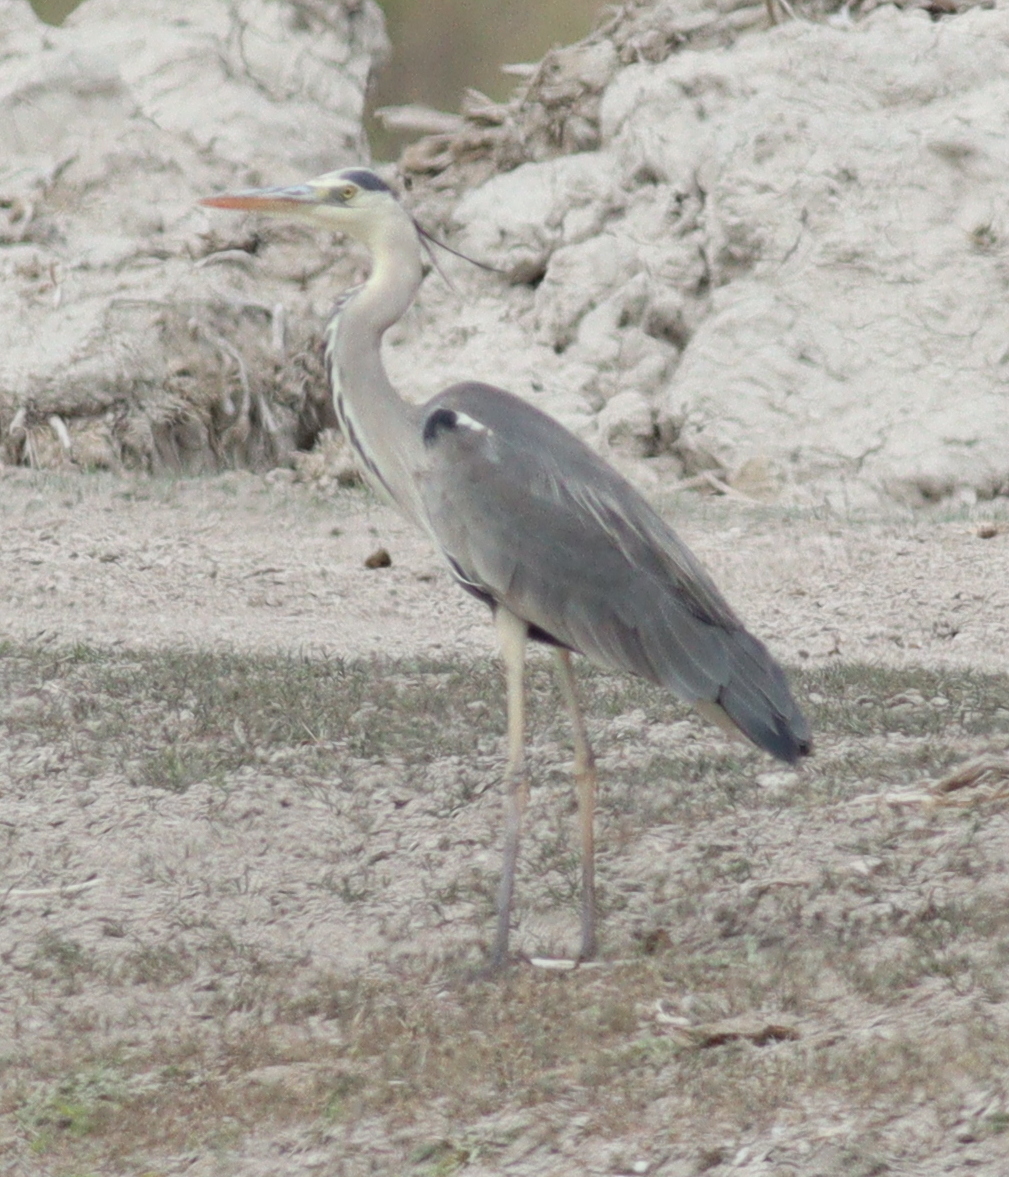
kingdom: Animalia
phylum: Chordata
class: Aves
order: Pelecaniformes
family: Ardeidae
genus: Ardea
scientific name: Ardea cinerea
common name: Grey heron
